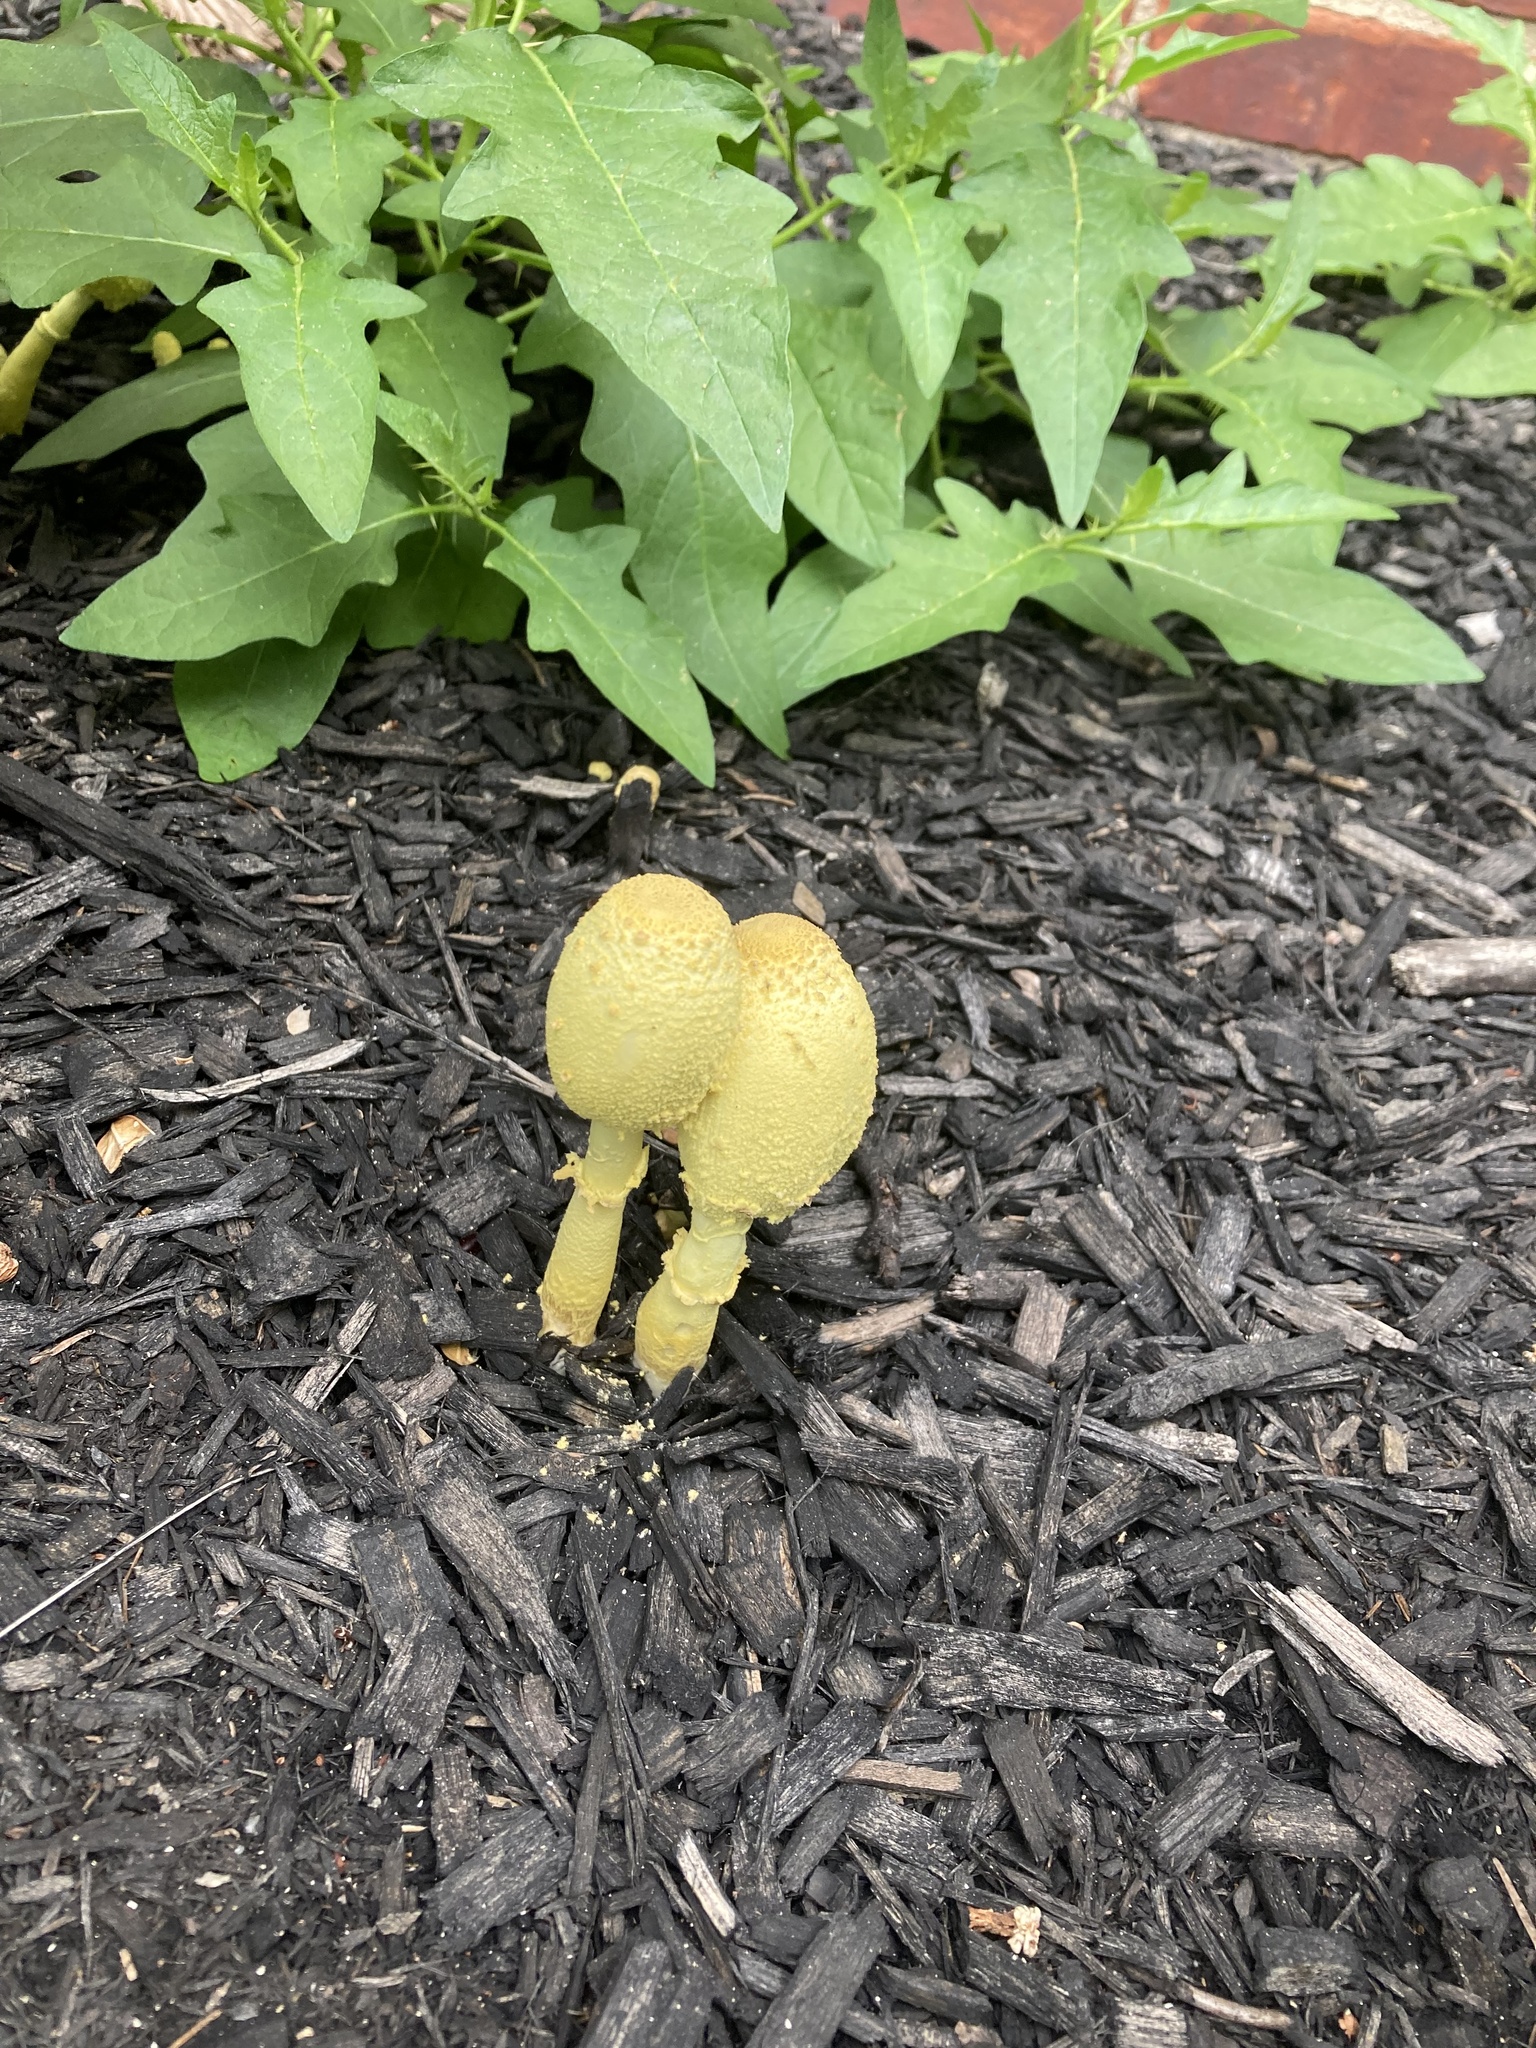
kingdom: Fungi
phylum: Basidiomycota
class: Agaricomycetes
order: Agaricales
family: Agaricaceae
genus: Leucocoprinus
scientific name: Leucocoprinus birnbaumii
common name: Plantpot dapperling
